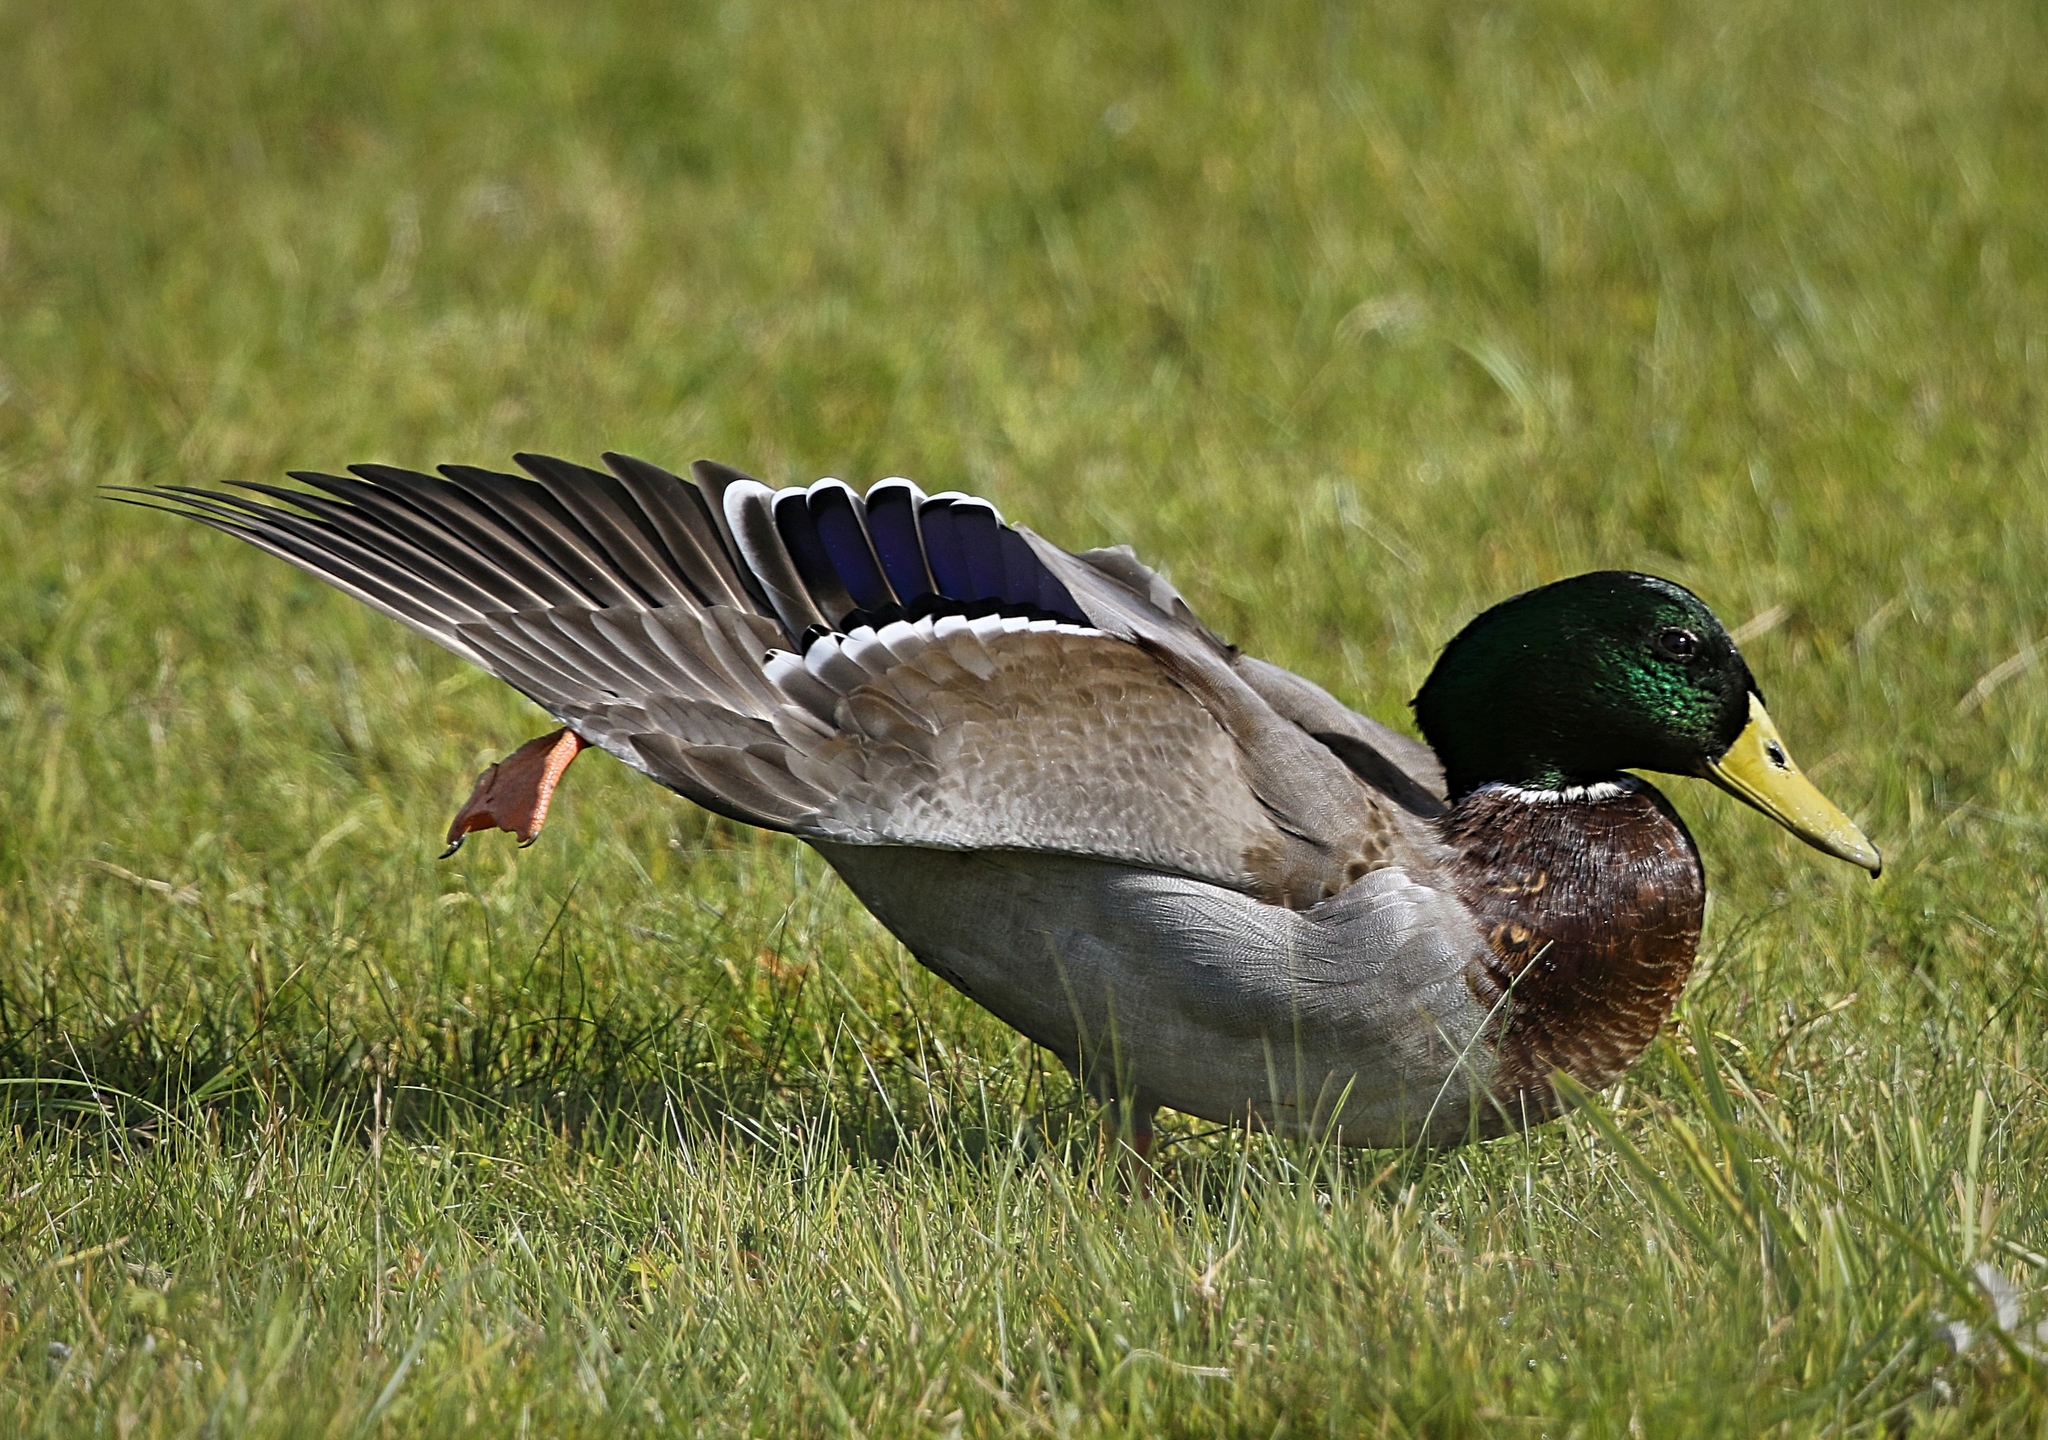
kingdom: Animalia
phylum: Chordata
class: Aves
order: Anseriformes
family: Anatidae
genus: Anas
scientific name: Anas platyrhynchos
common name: Mallard
